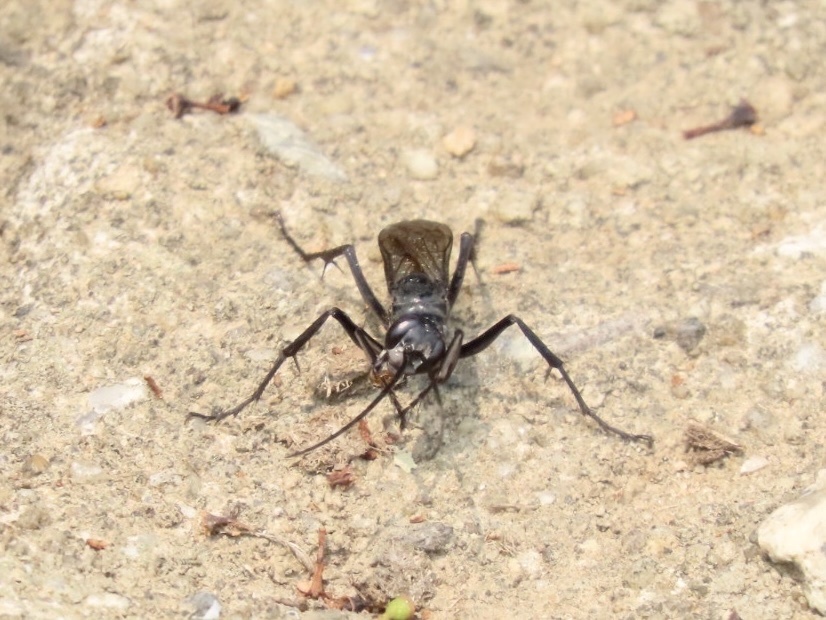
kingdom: Animalia
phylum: Arthropoda
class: Insecta
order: Hymenoptera
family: Pompilidae
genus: Tachypompilus
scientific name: Tachypompilus analis
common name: Spider wasp
